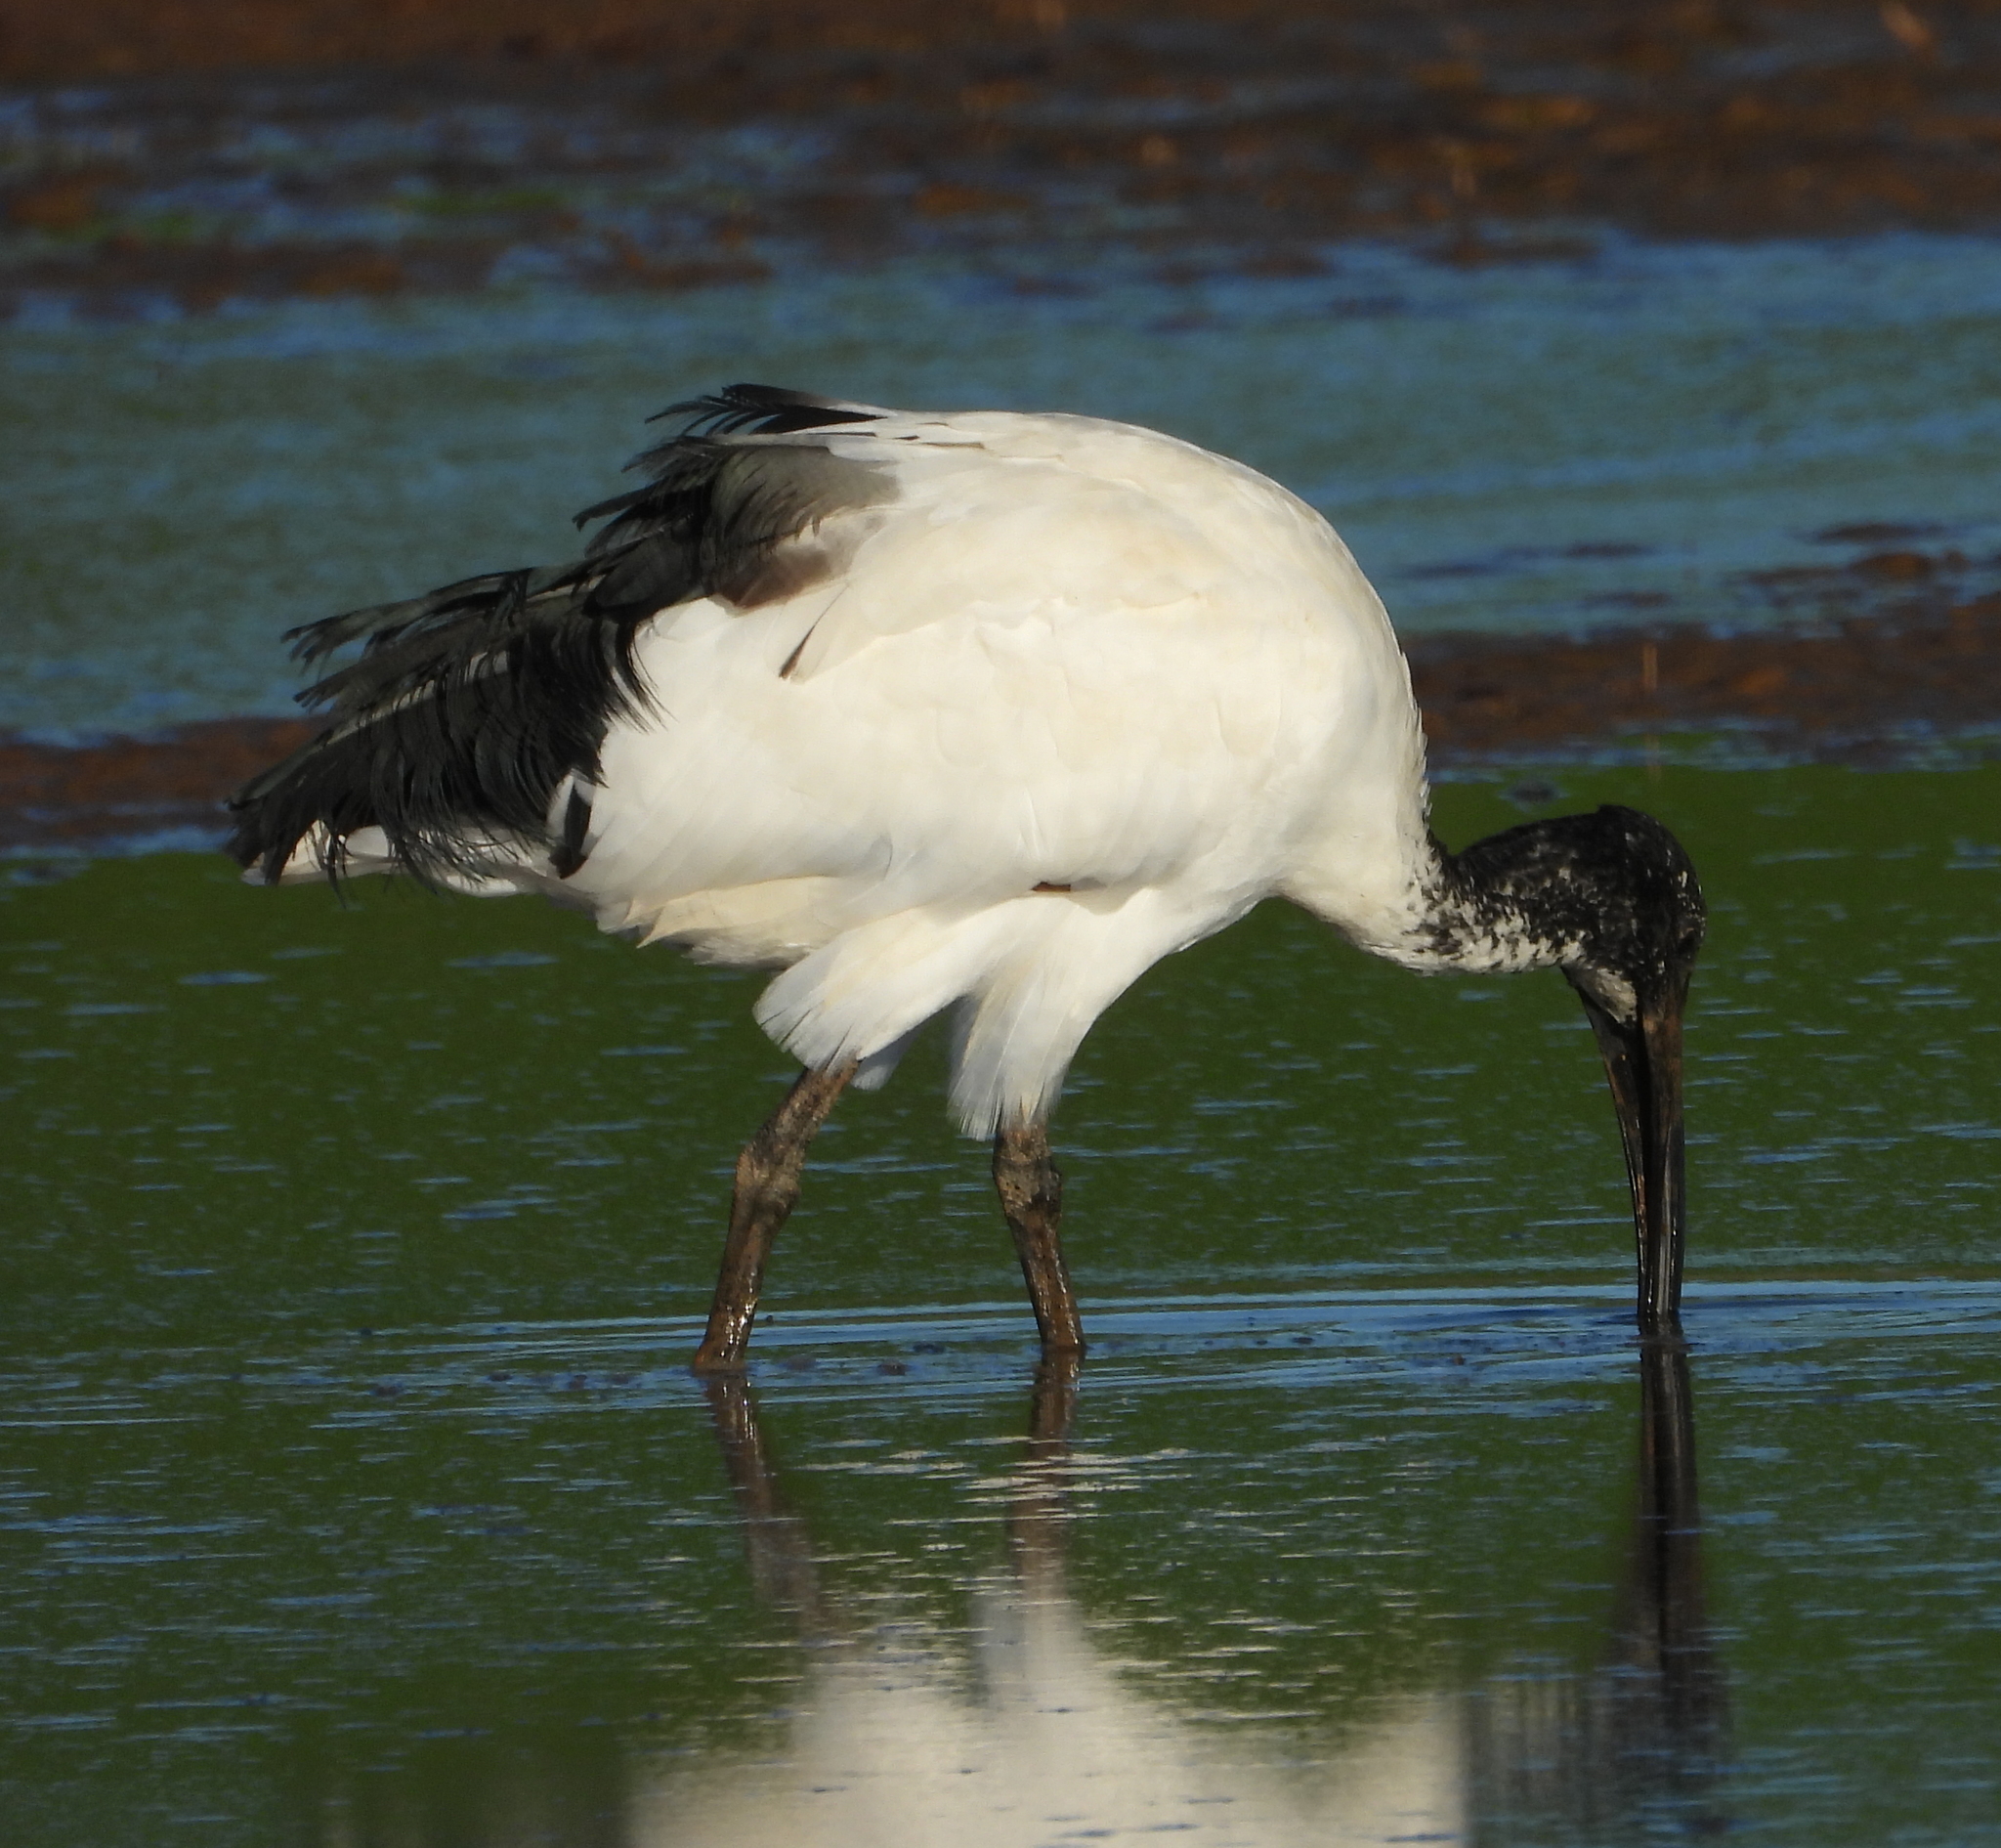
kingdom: Animalia
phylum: Chordata
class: Aves
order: Pelecaniformes
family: Threskiornithidae
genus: Threskiornis
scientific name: Threskiornis aethiopicus
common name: Sacred ibis
